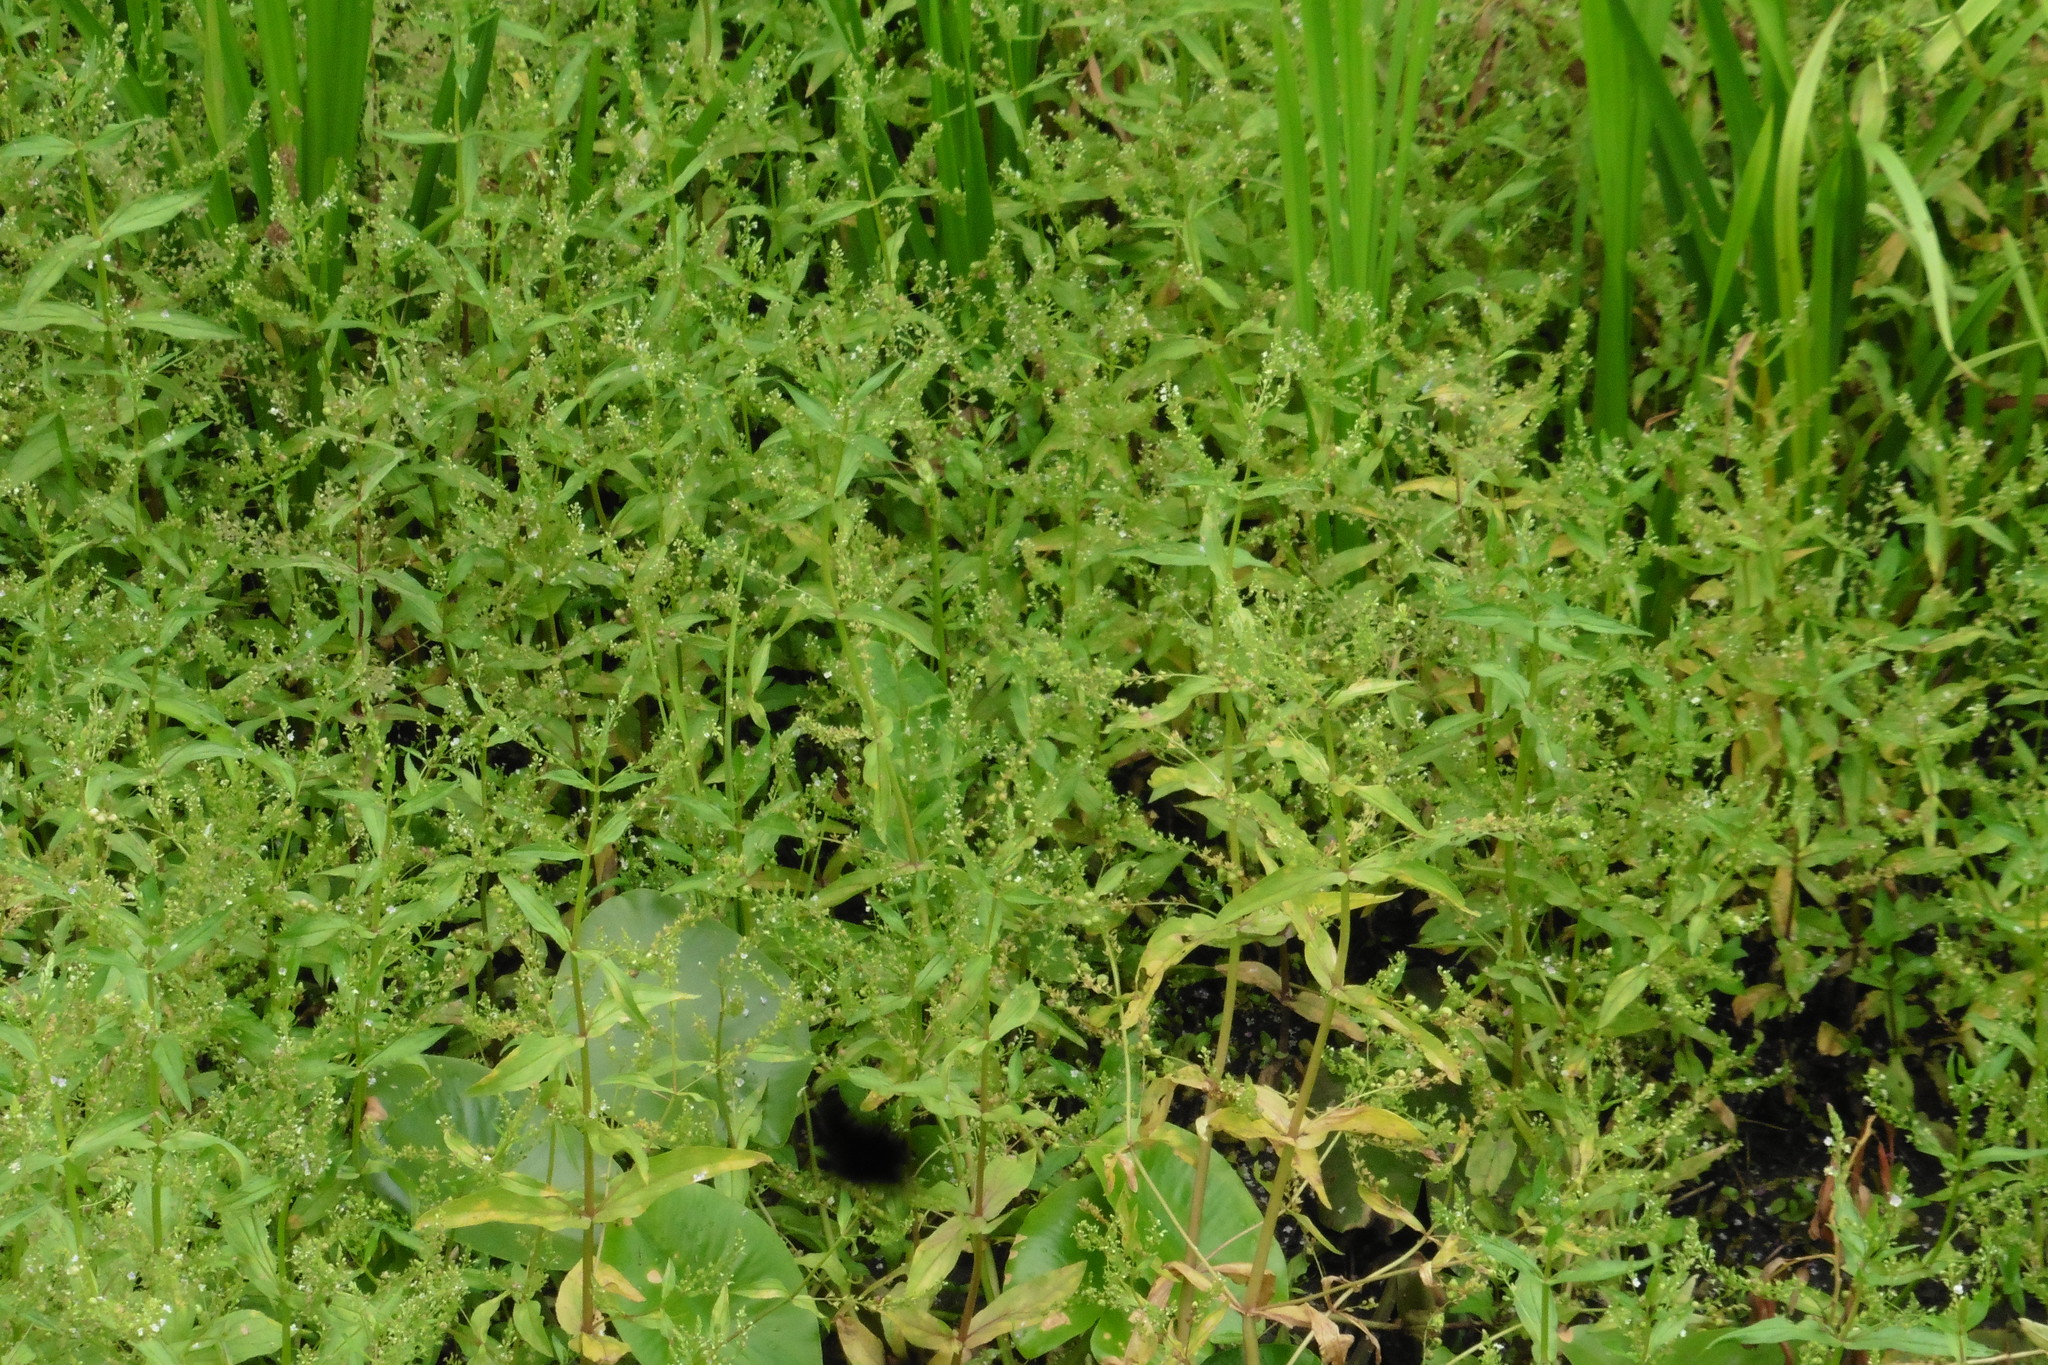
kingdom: Plantae
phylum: Tracheophyta
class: Magnoliopsida
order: Lamiales
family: Plantaginaceae
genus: Veronica
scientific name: Veronica anagallis-aquatica
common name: Water speedwell
